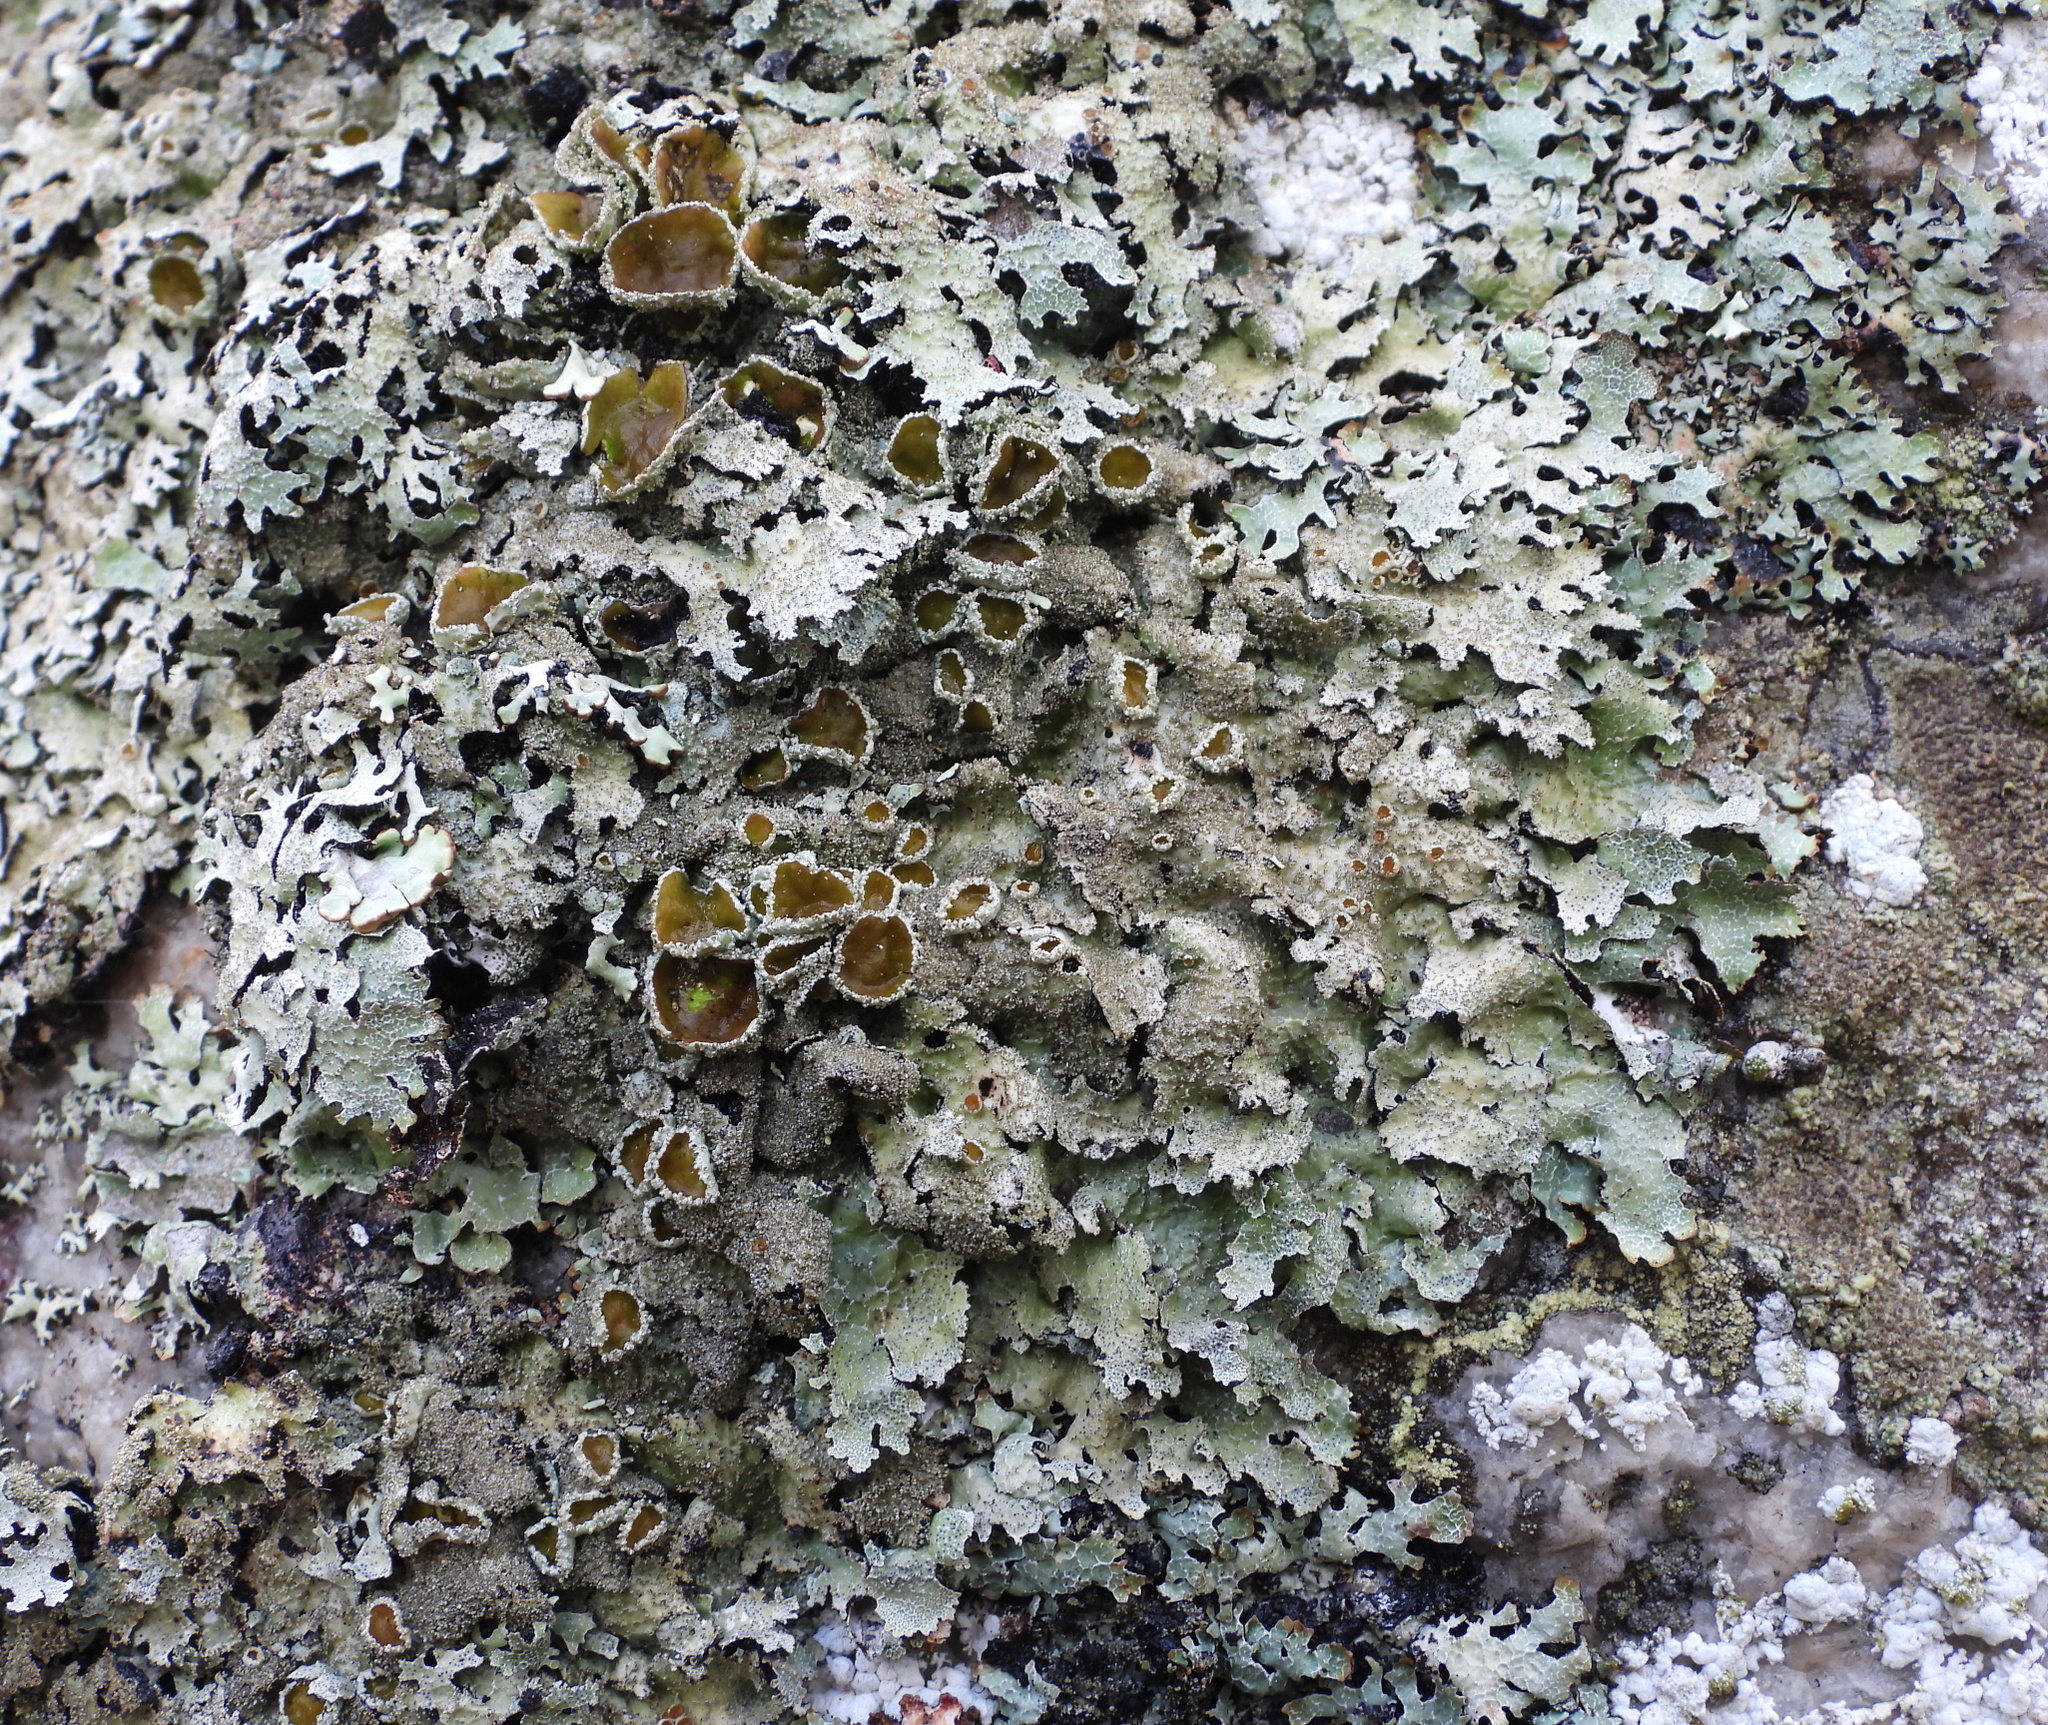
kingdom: Fungi
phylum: Ascomycota
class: Lecanoromycetes
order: Lecanorales
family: Parmeliaceae
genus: Parmelia
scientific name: Parmelia saxatilis
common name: Salted shield lichen
